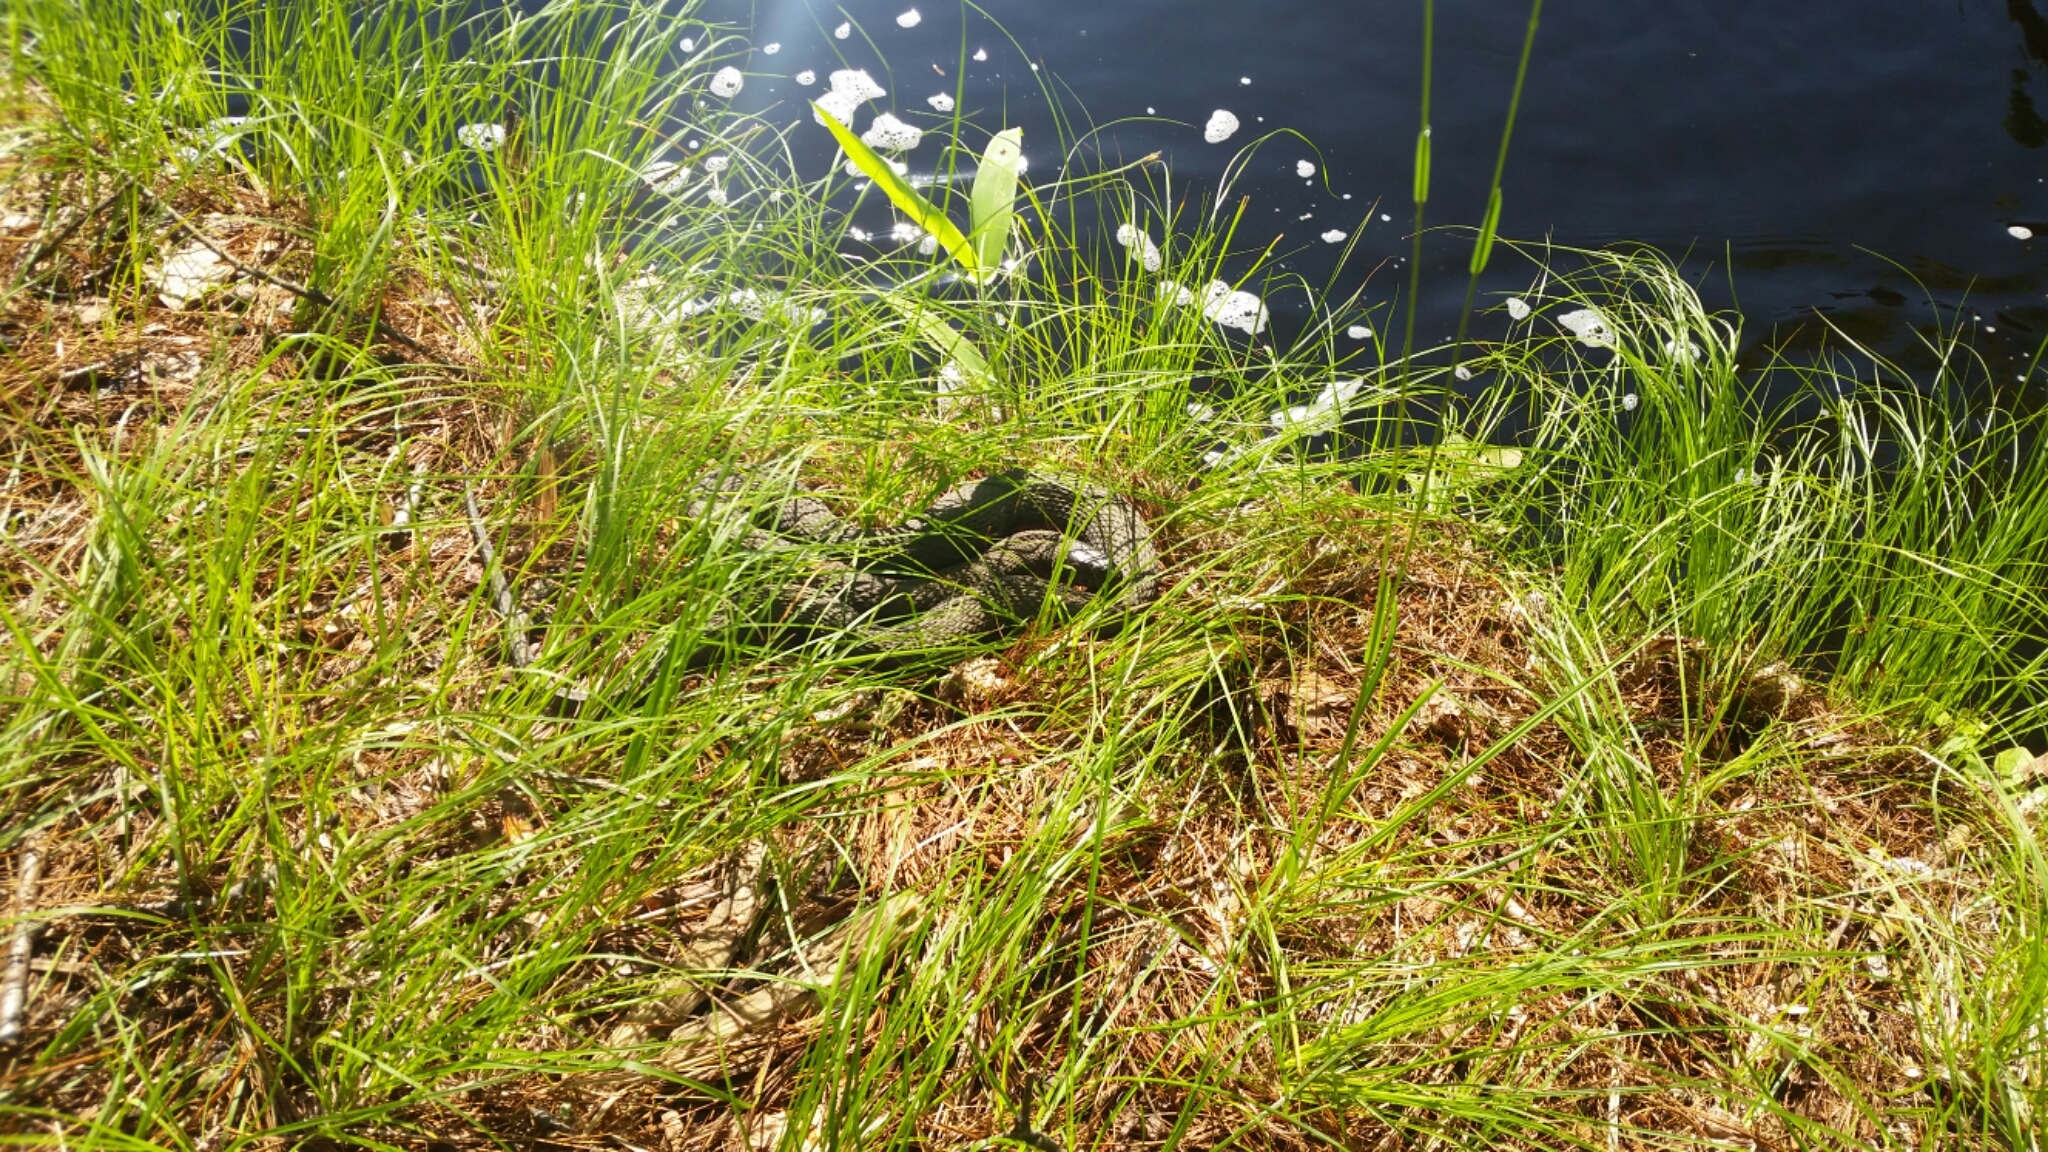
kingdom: Animalia
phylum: Chordata
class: Squamata
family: Colubridae
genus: Nerodia
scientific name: Nerodia sipedon
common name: Northern water snake
